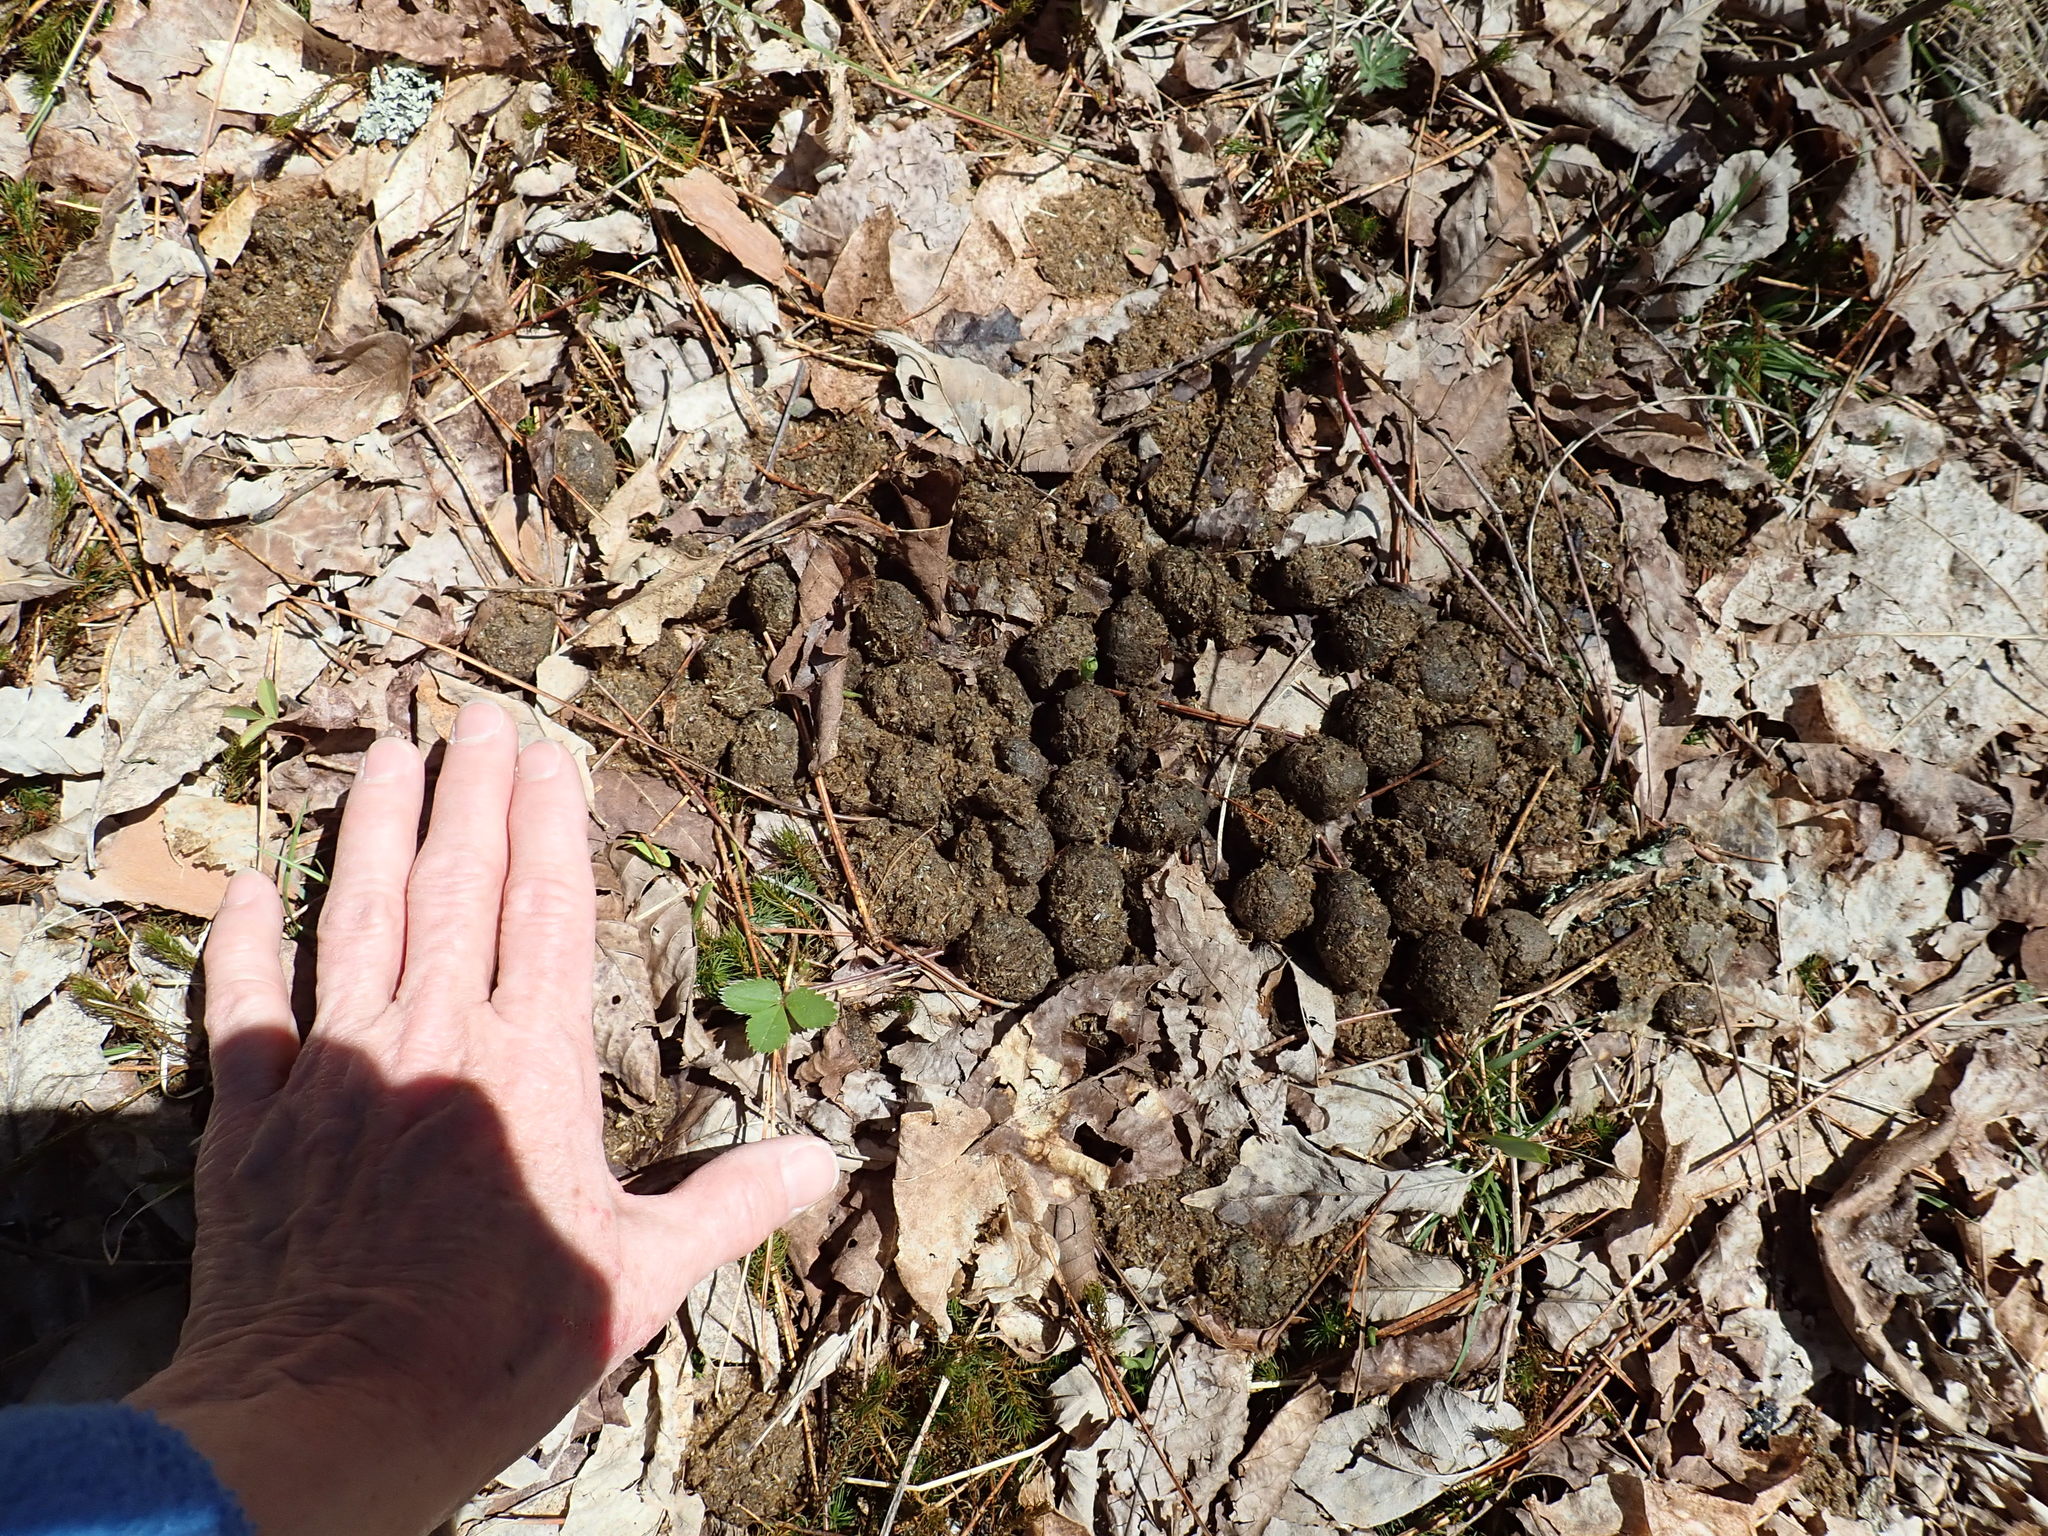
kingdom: Animalia
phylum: Chordata
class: Mammalia
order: Artiodactyla
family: Cervidae
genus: Alces
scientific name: Alces alces
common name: Moose
